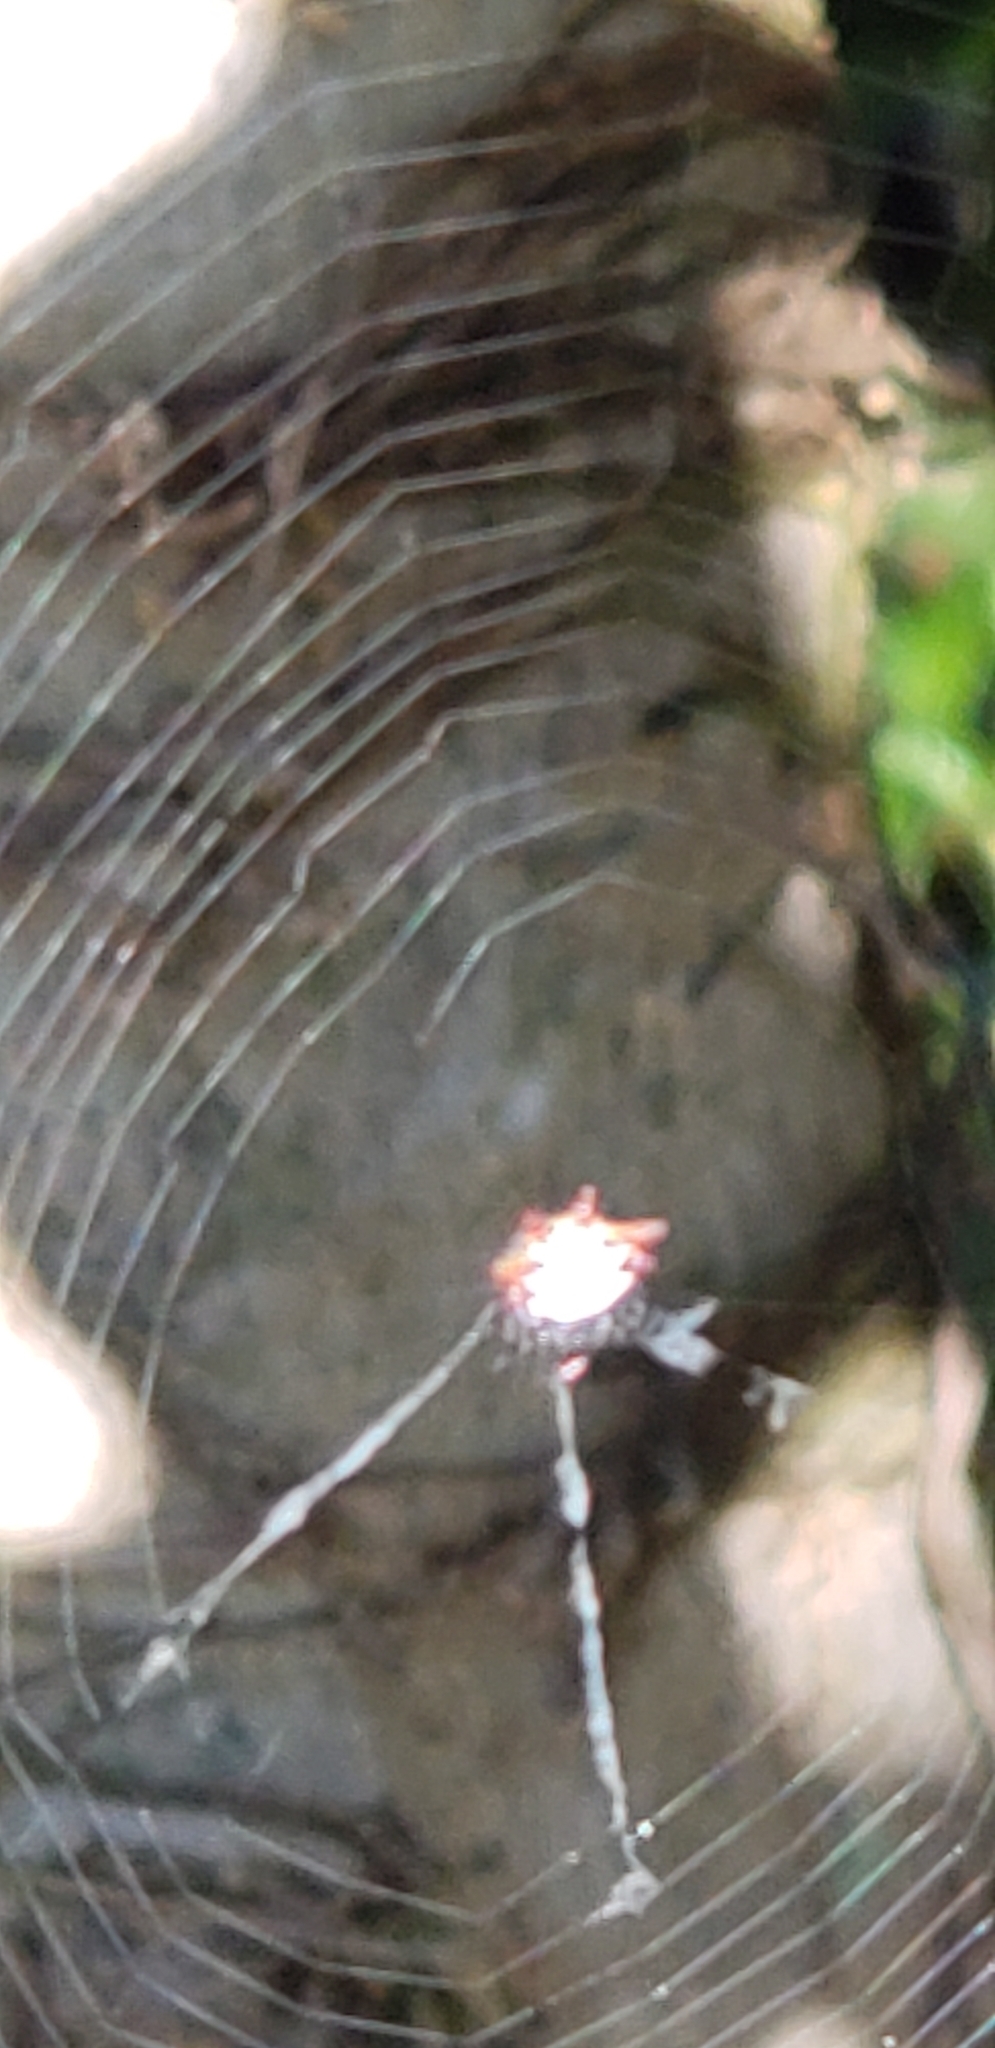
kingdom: Animalia
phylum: Arthropoda
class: Arachnida
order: Araneae
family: Araneidae
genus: Gasteracantha
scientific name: Gasteracantha cancriformis
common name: Orb weavers
